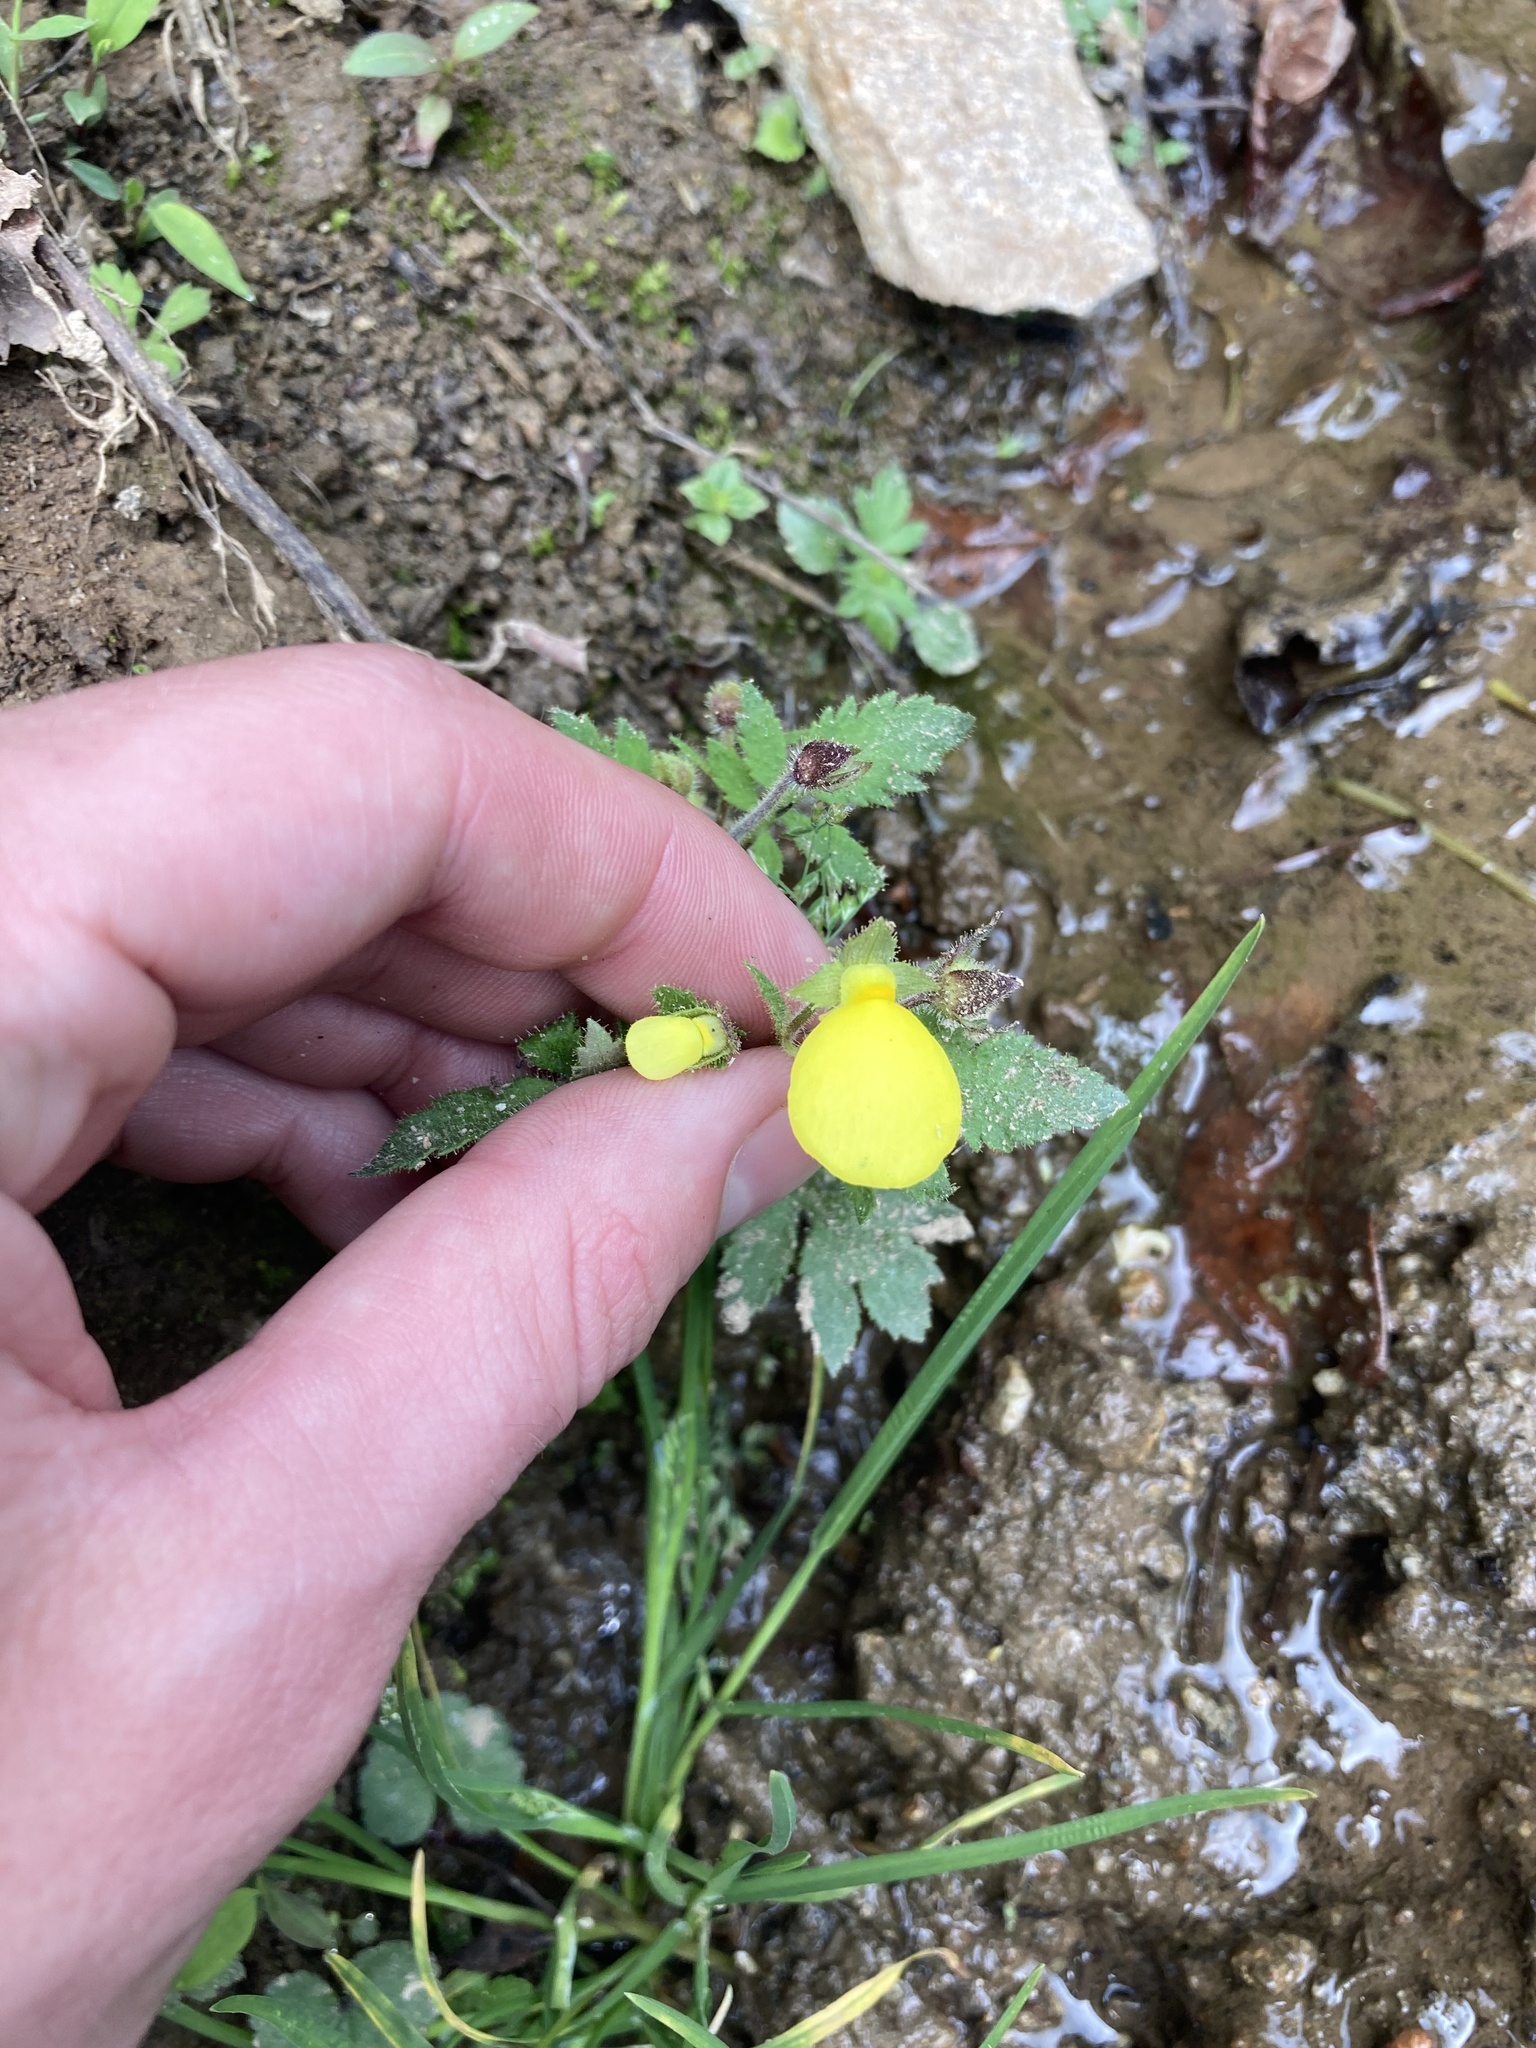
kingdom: Plantae
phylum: Tracheophyta
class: Magnoliopsida
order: Lamiales
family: Calceolariaceae
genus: Calceolaria
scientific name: Calceolaria tripartita
